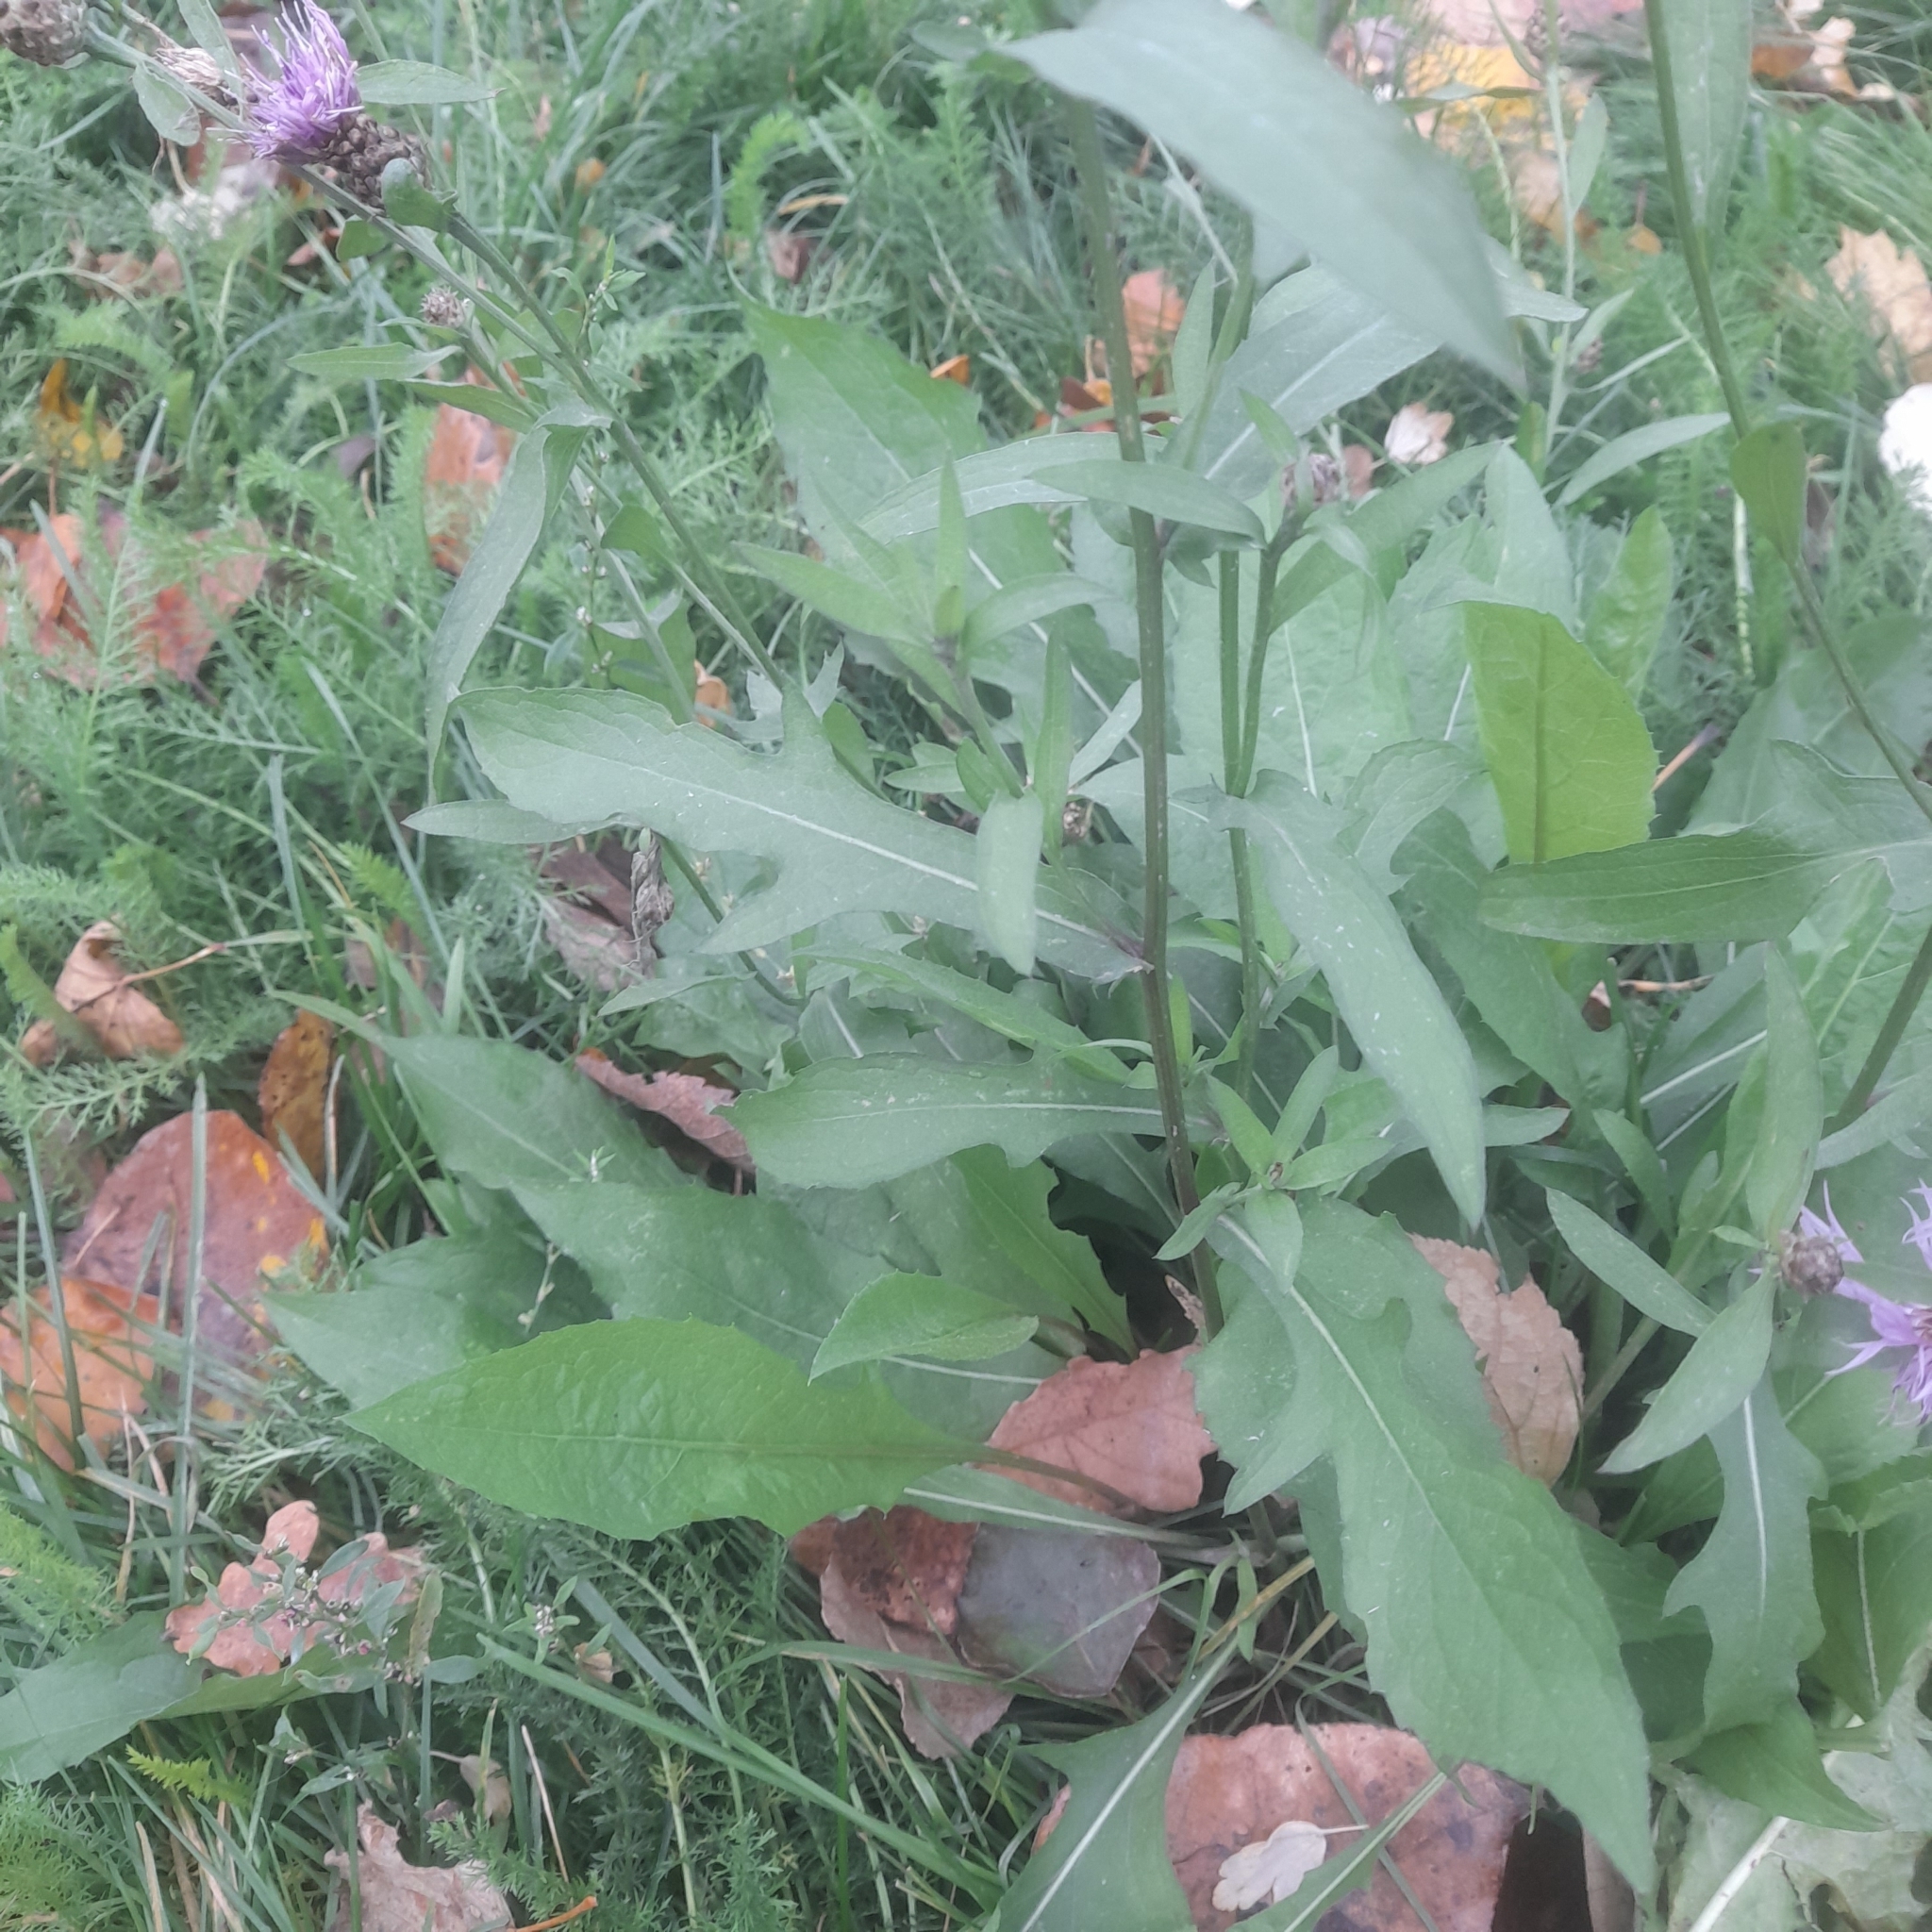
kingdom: Plantae
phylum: Tracheophyta
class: Magnoliopsida
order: Asterales
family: Asteraceae
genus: Centaurea
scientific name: Centaurea jacea
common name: Brown knapweed
